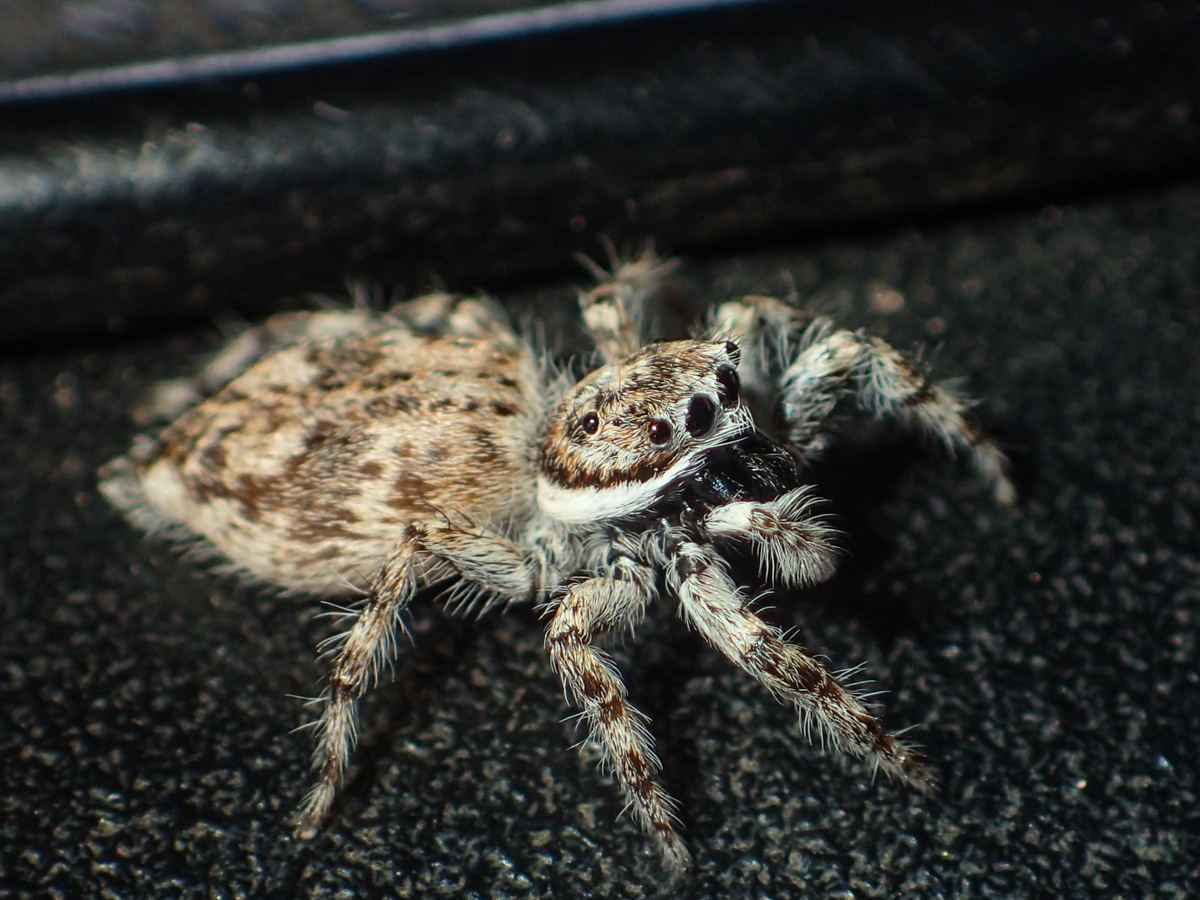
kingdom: Animalia
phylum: Arthropoda
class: Arachnida
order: Araneae
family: Salticidae
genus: Menemerus
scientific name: Menemerus nigli
